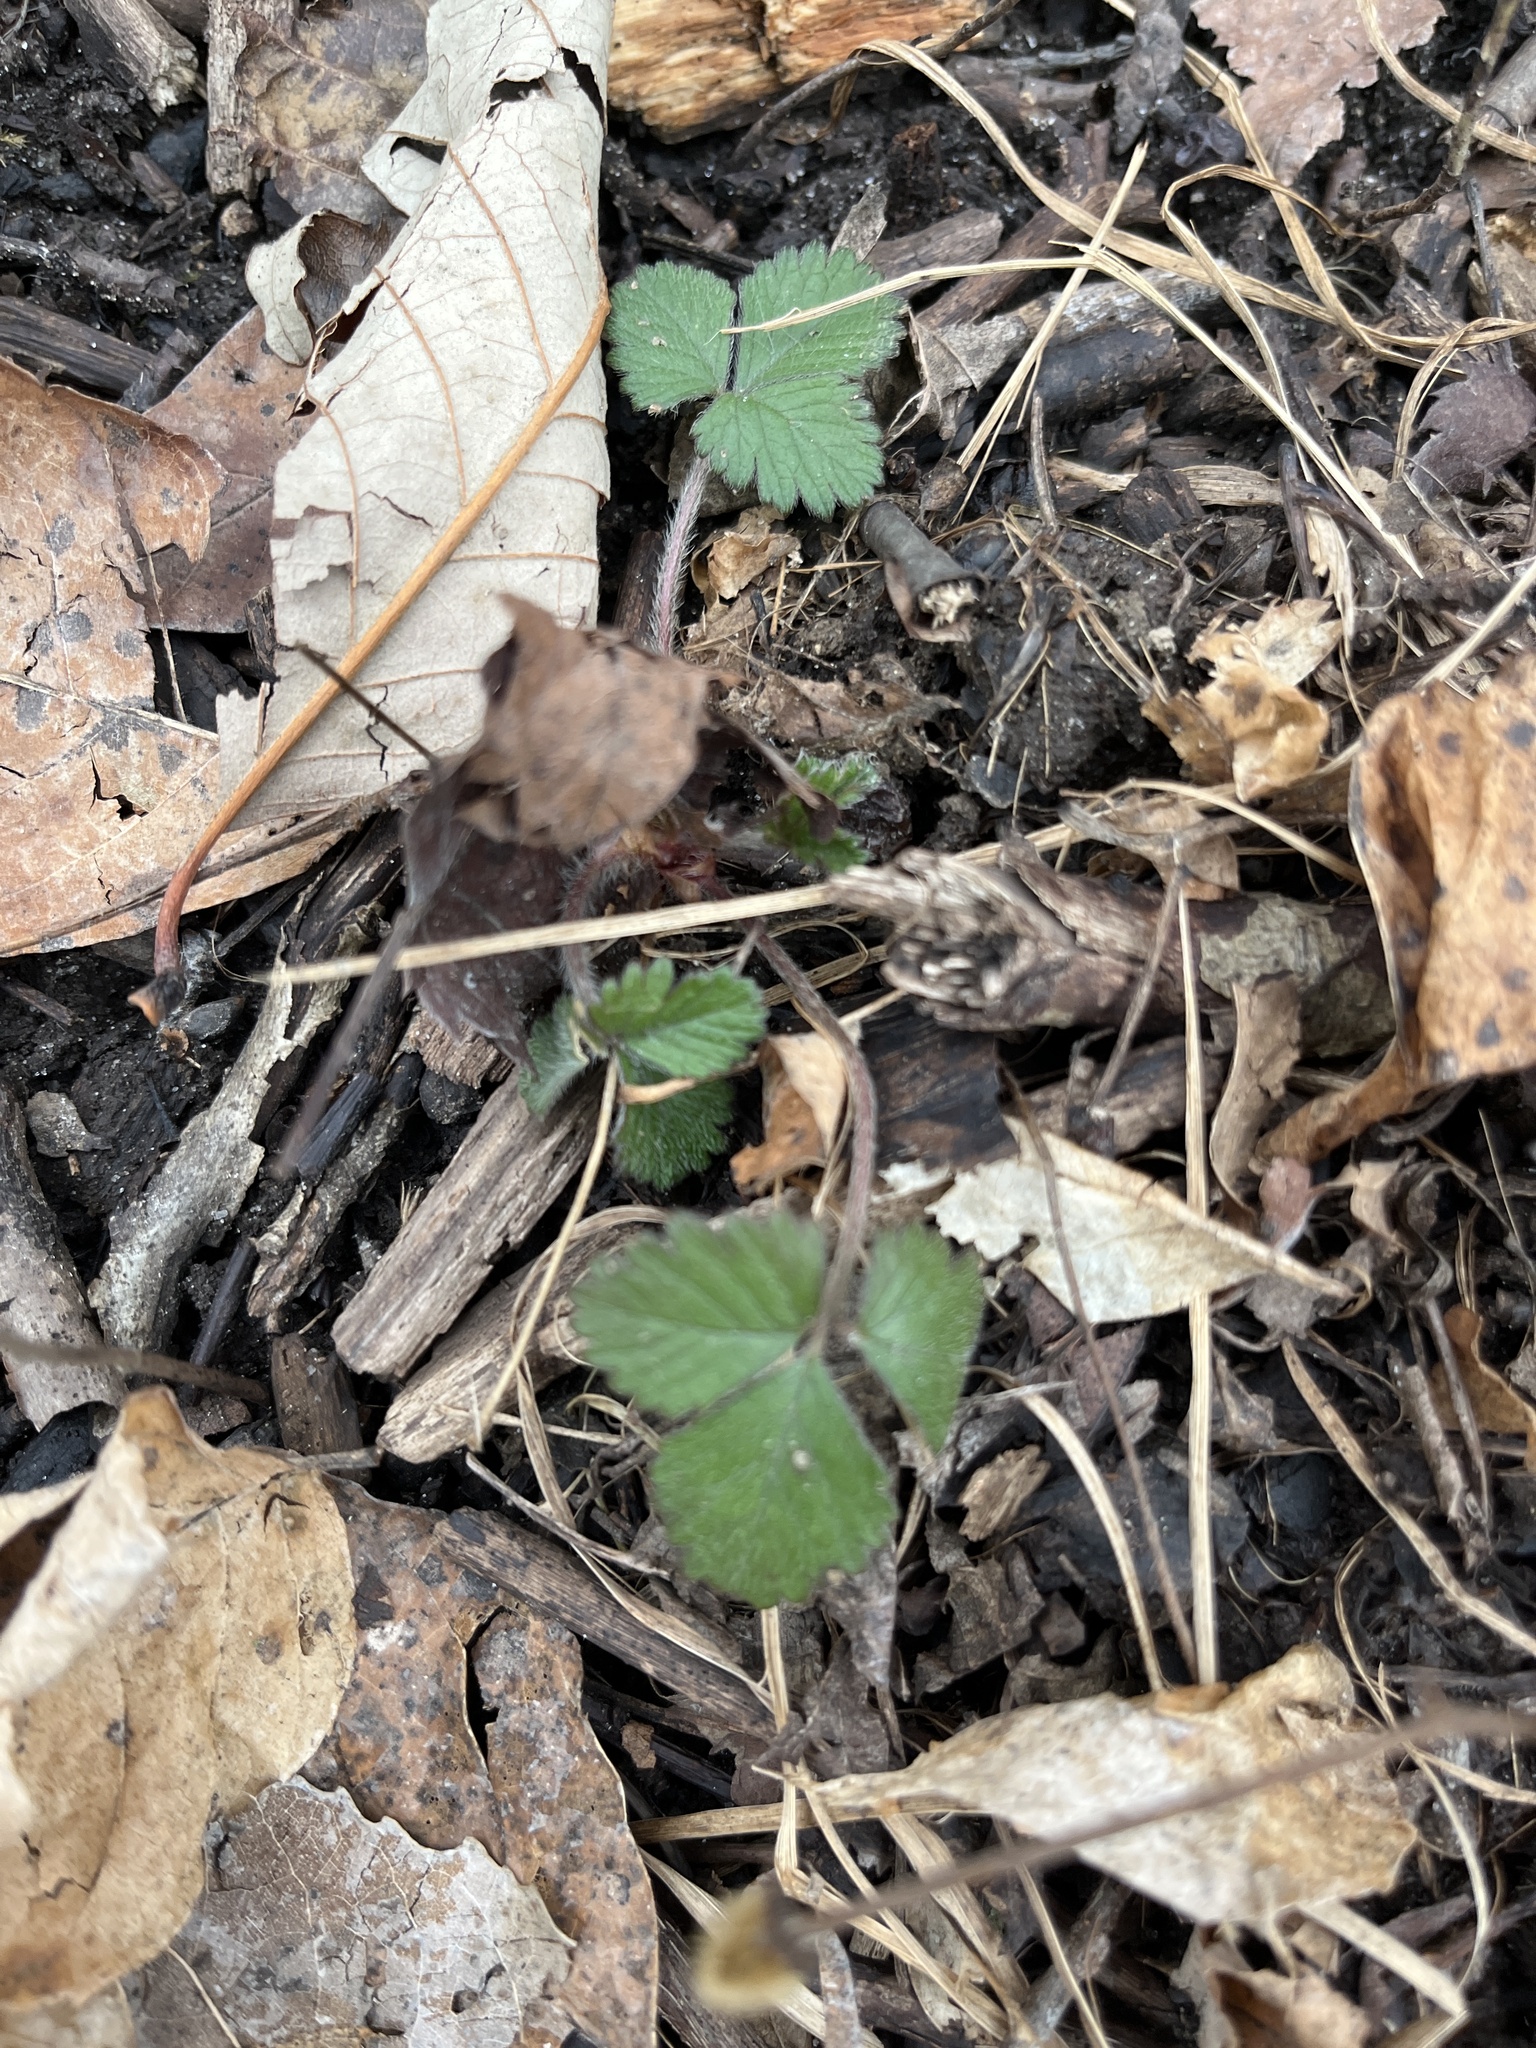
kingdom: Plantae
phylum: Tracheophyta
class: Magnoliopsida
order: Rosales
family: Rosaceae
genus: Potentilla
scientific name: Potentilla indica
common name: Yellow-flowered strawberry
